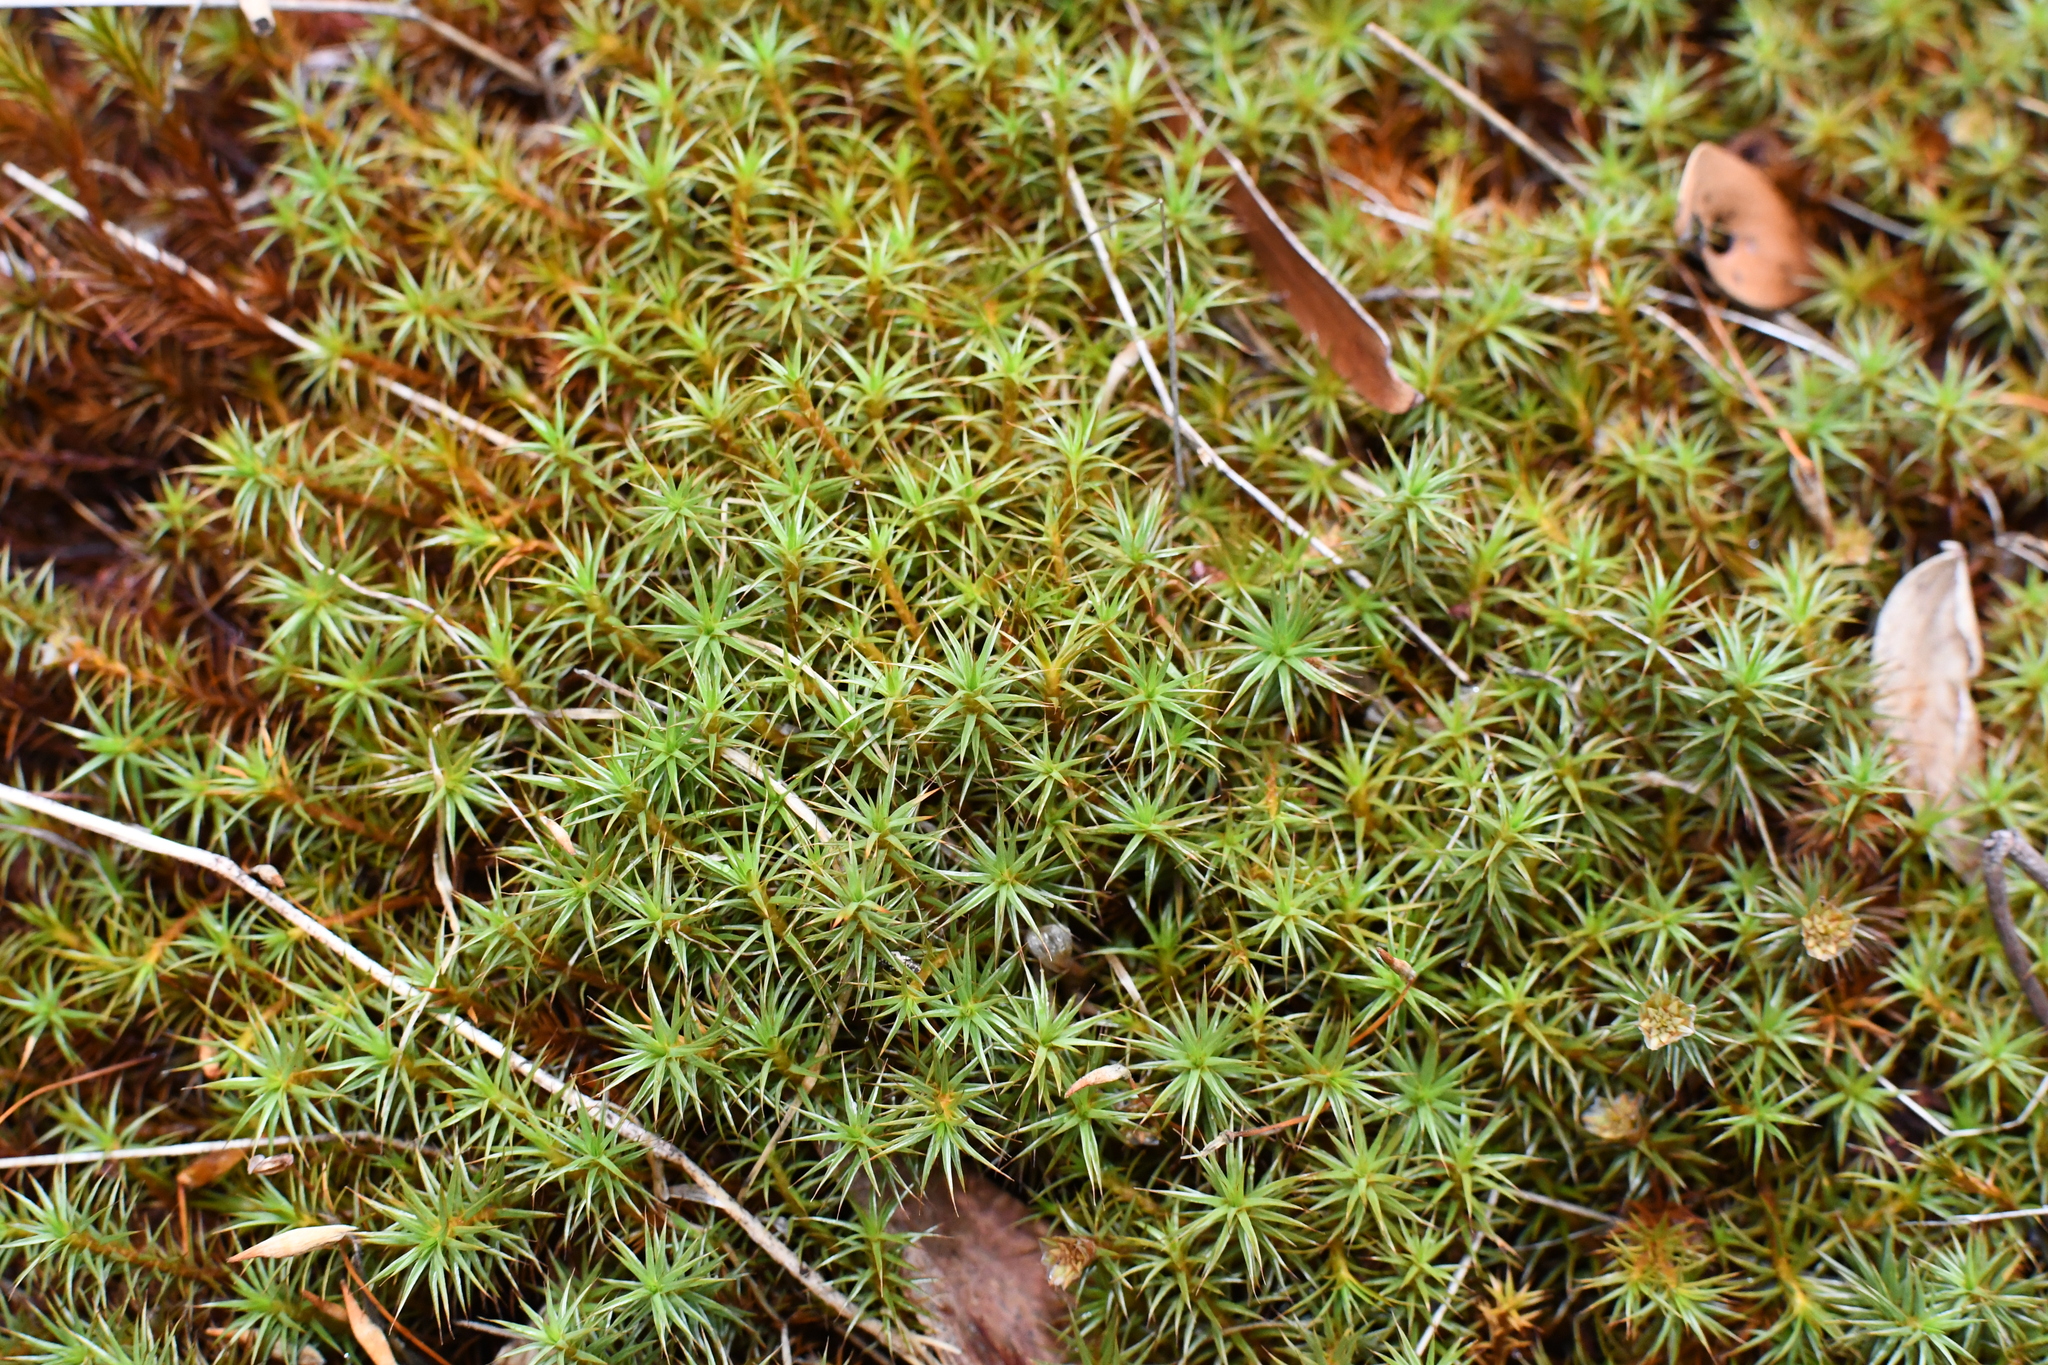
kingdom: Plantae
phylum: Bryophyta
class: Polytrichopsida
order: Polytrichales
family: Polytrichaceae
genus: Polytrichum
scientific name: Polytrichum juniperinum
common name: Juniper haircap moss
